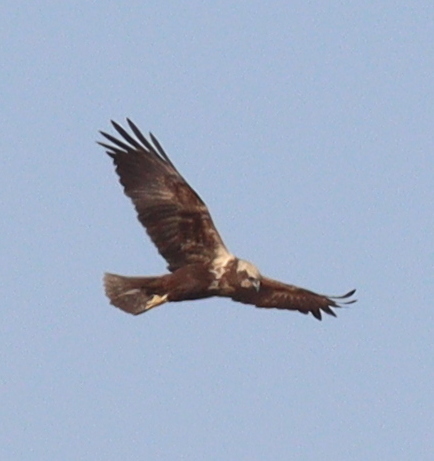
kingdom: Animalia
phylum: Chordata
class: Aves
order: Accipitriformes
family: Accipitridae
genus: Circus
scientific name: Circus aeruginosus
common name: Western marsh harrier
